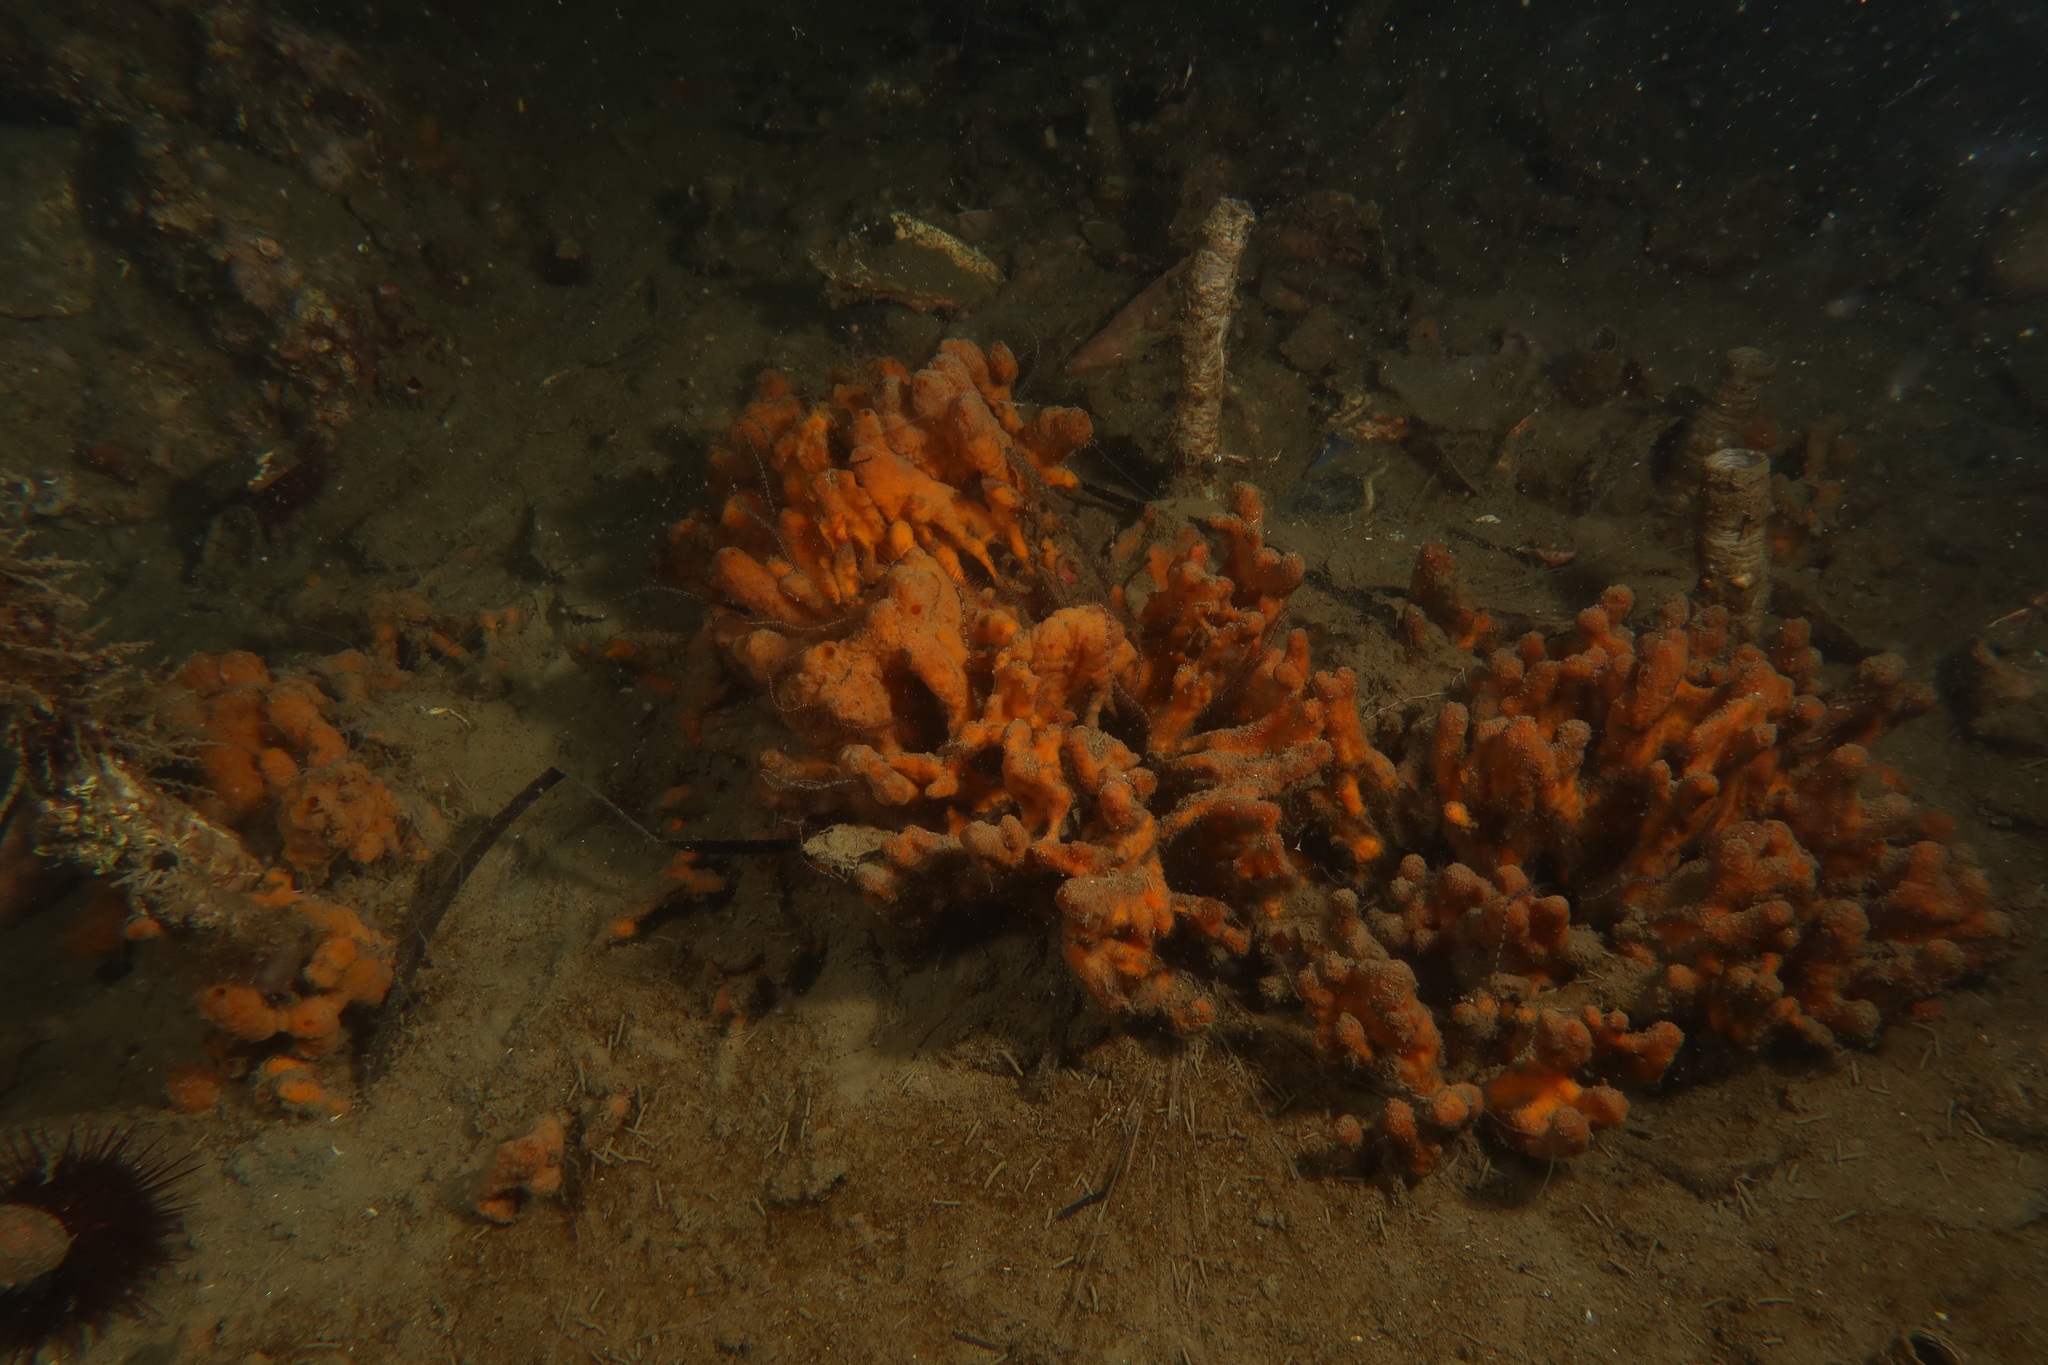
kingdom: Animalia
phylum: Porifera
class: Demospongiae
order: Suberitida
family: Suberitidae
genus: Suberites
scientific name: Suberites massa
